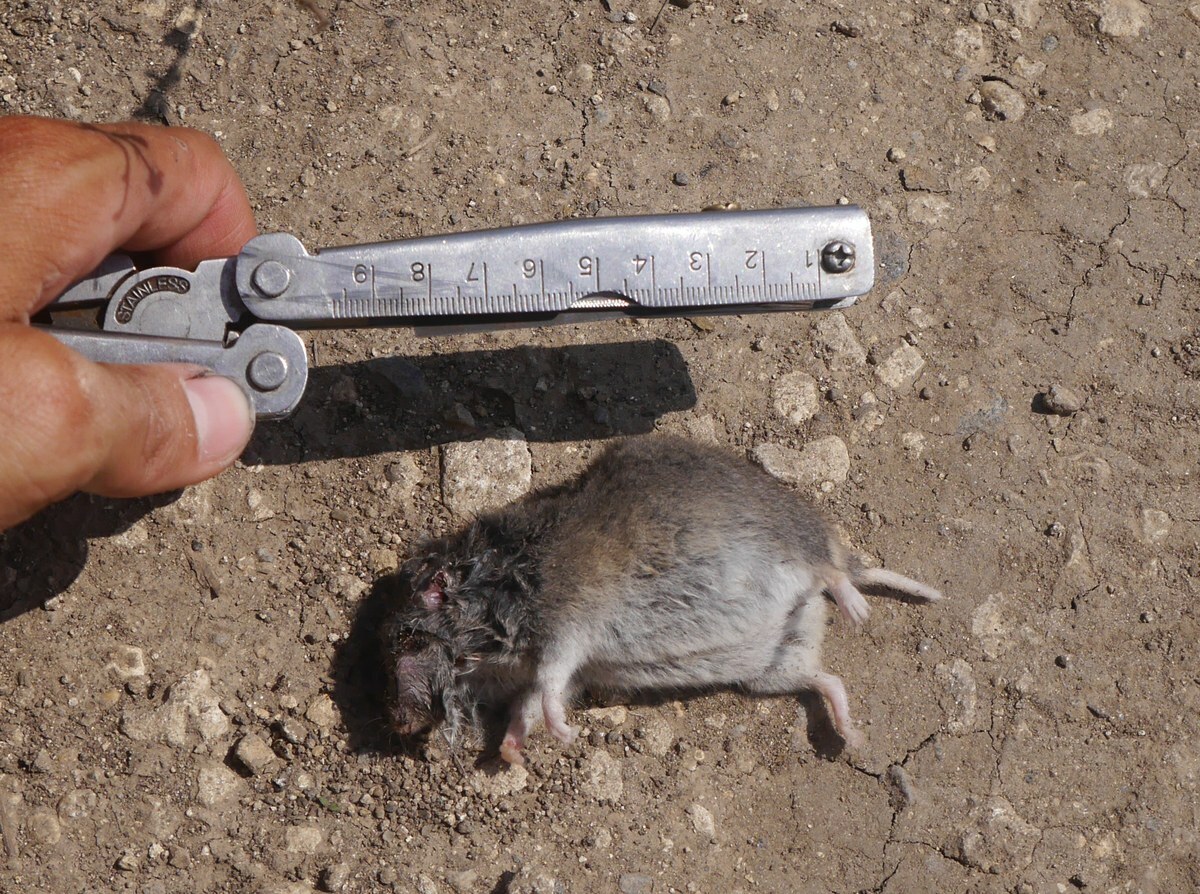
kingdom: Animalia
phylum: Chordata
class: Mammalia
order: Rodentia
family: Cricetidae
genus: Nothocricetulus
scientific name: Nothocricetulus
